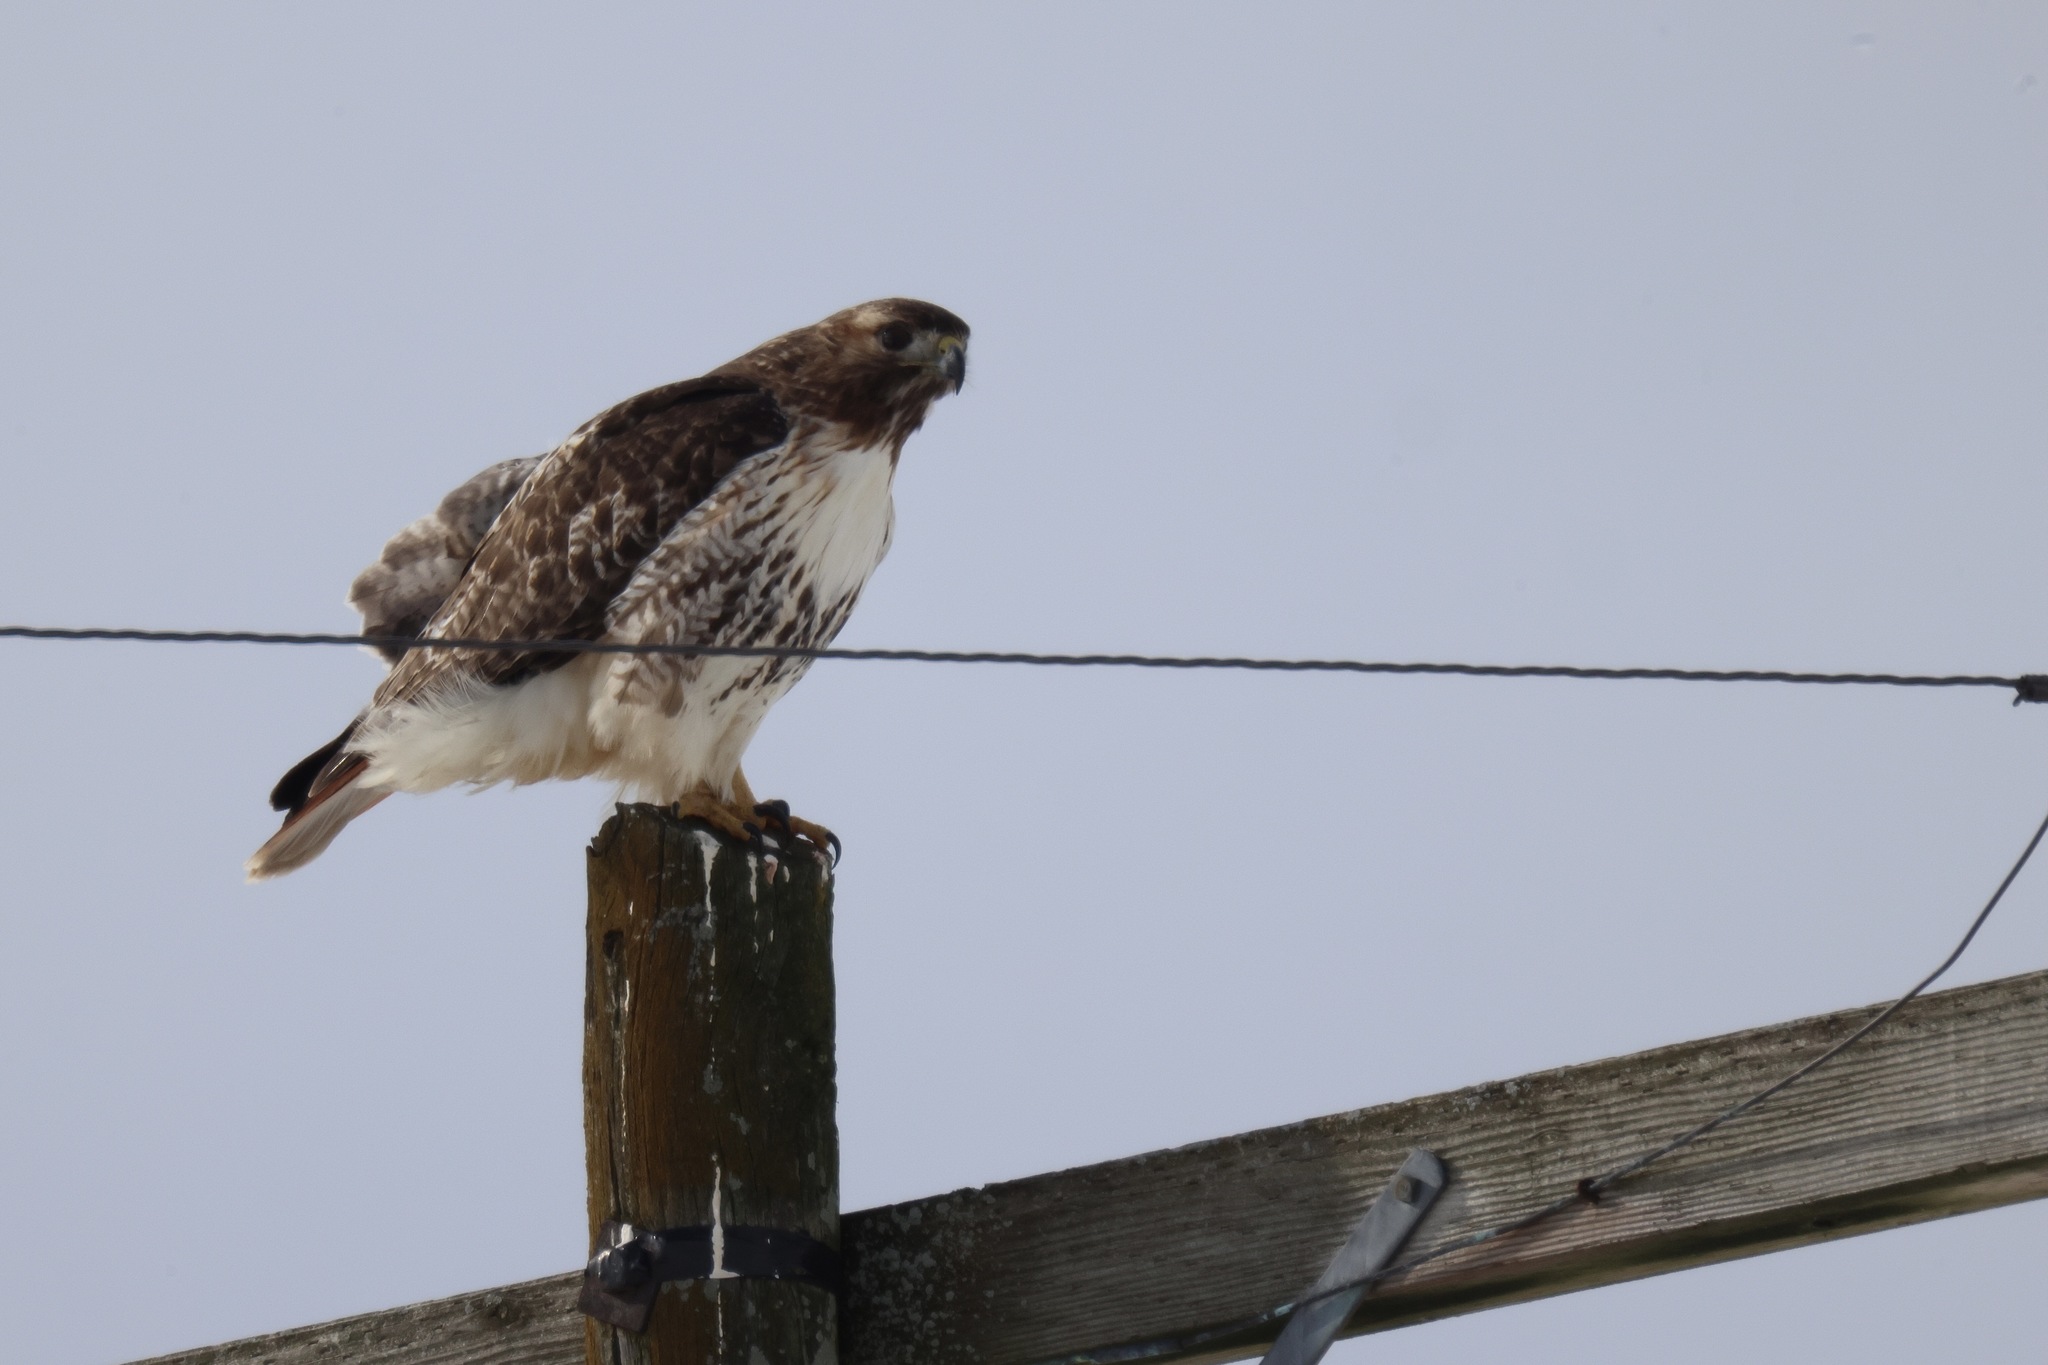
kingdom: Animalia
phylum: Chordata
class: Aves
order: Accipitriformes
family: Accipitridae
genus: Buteo
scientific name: Buteo jamaicensis
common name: Red-tailed hawk
